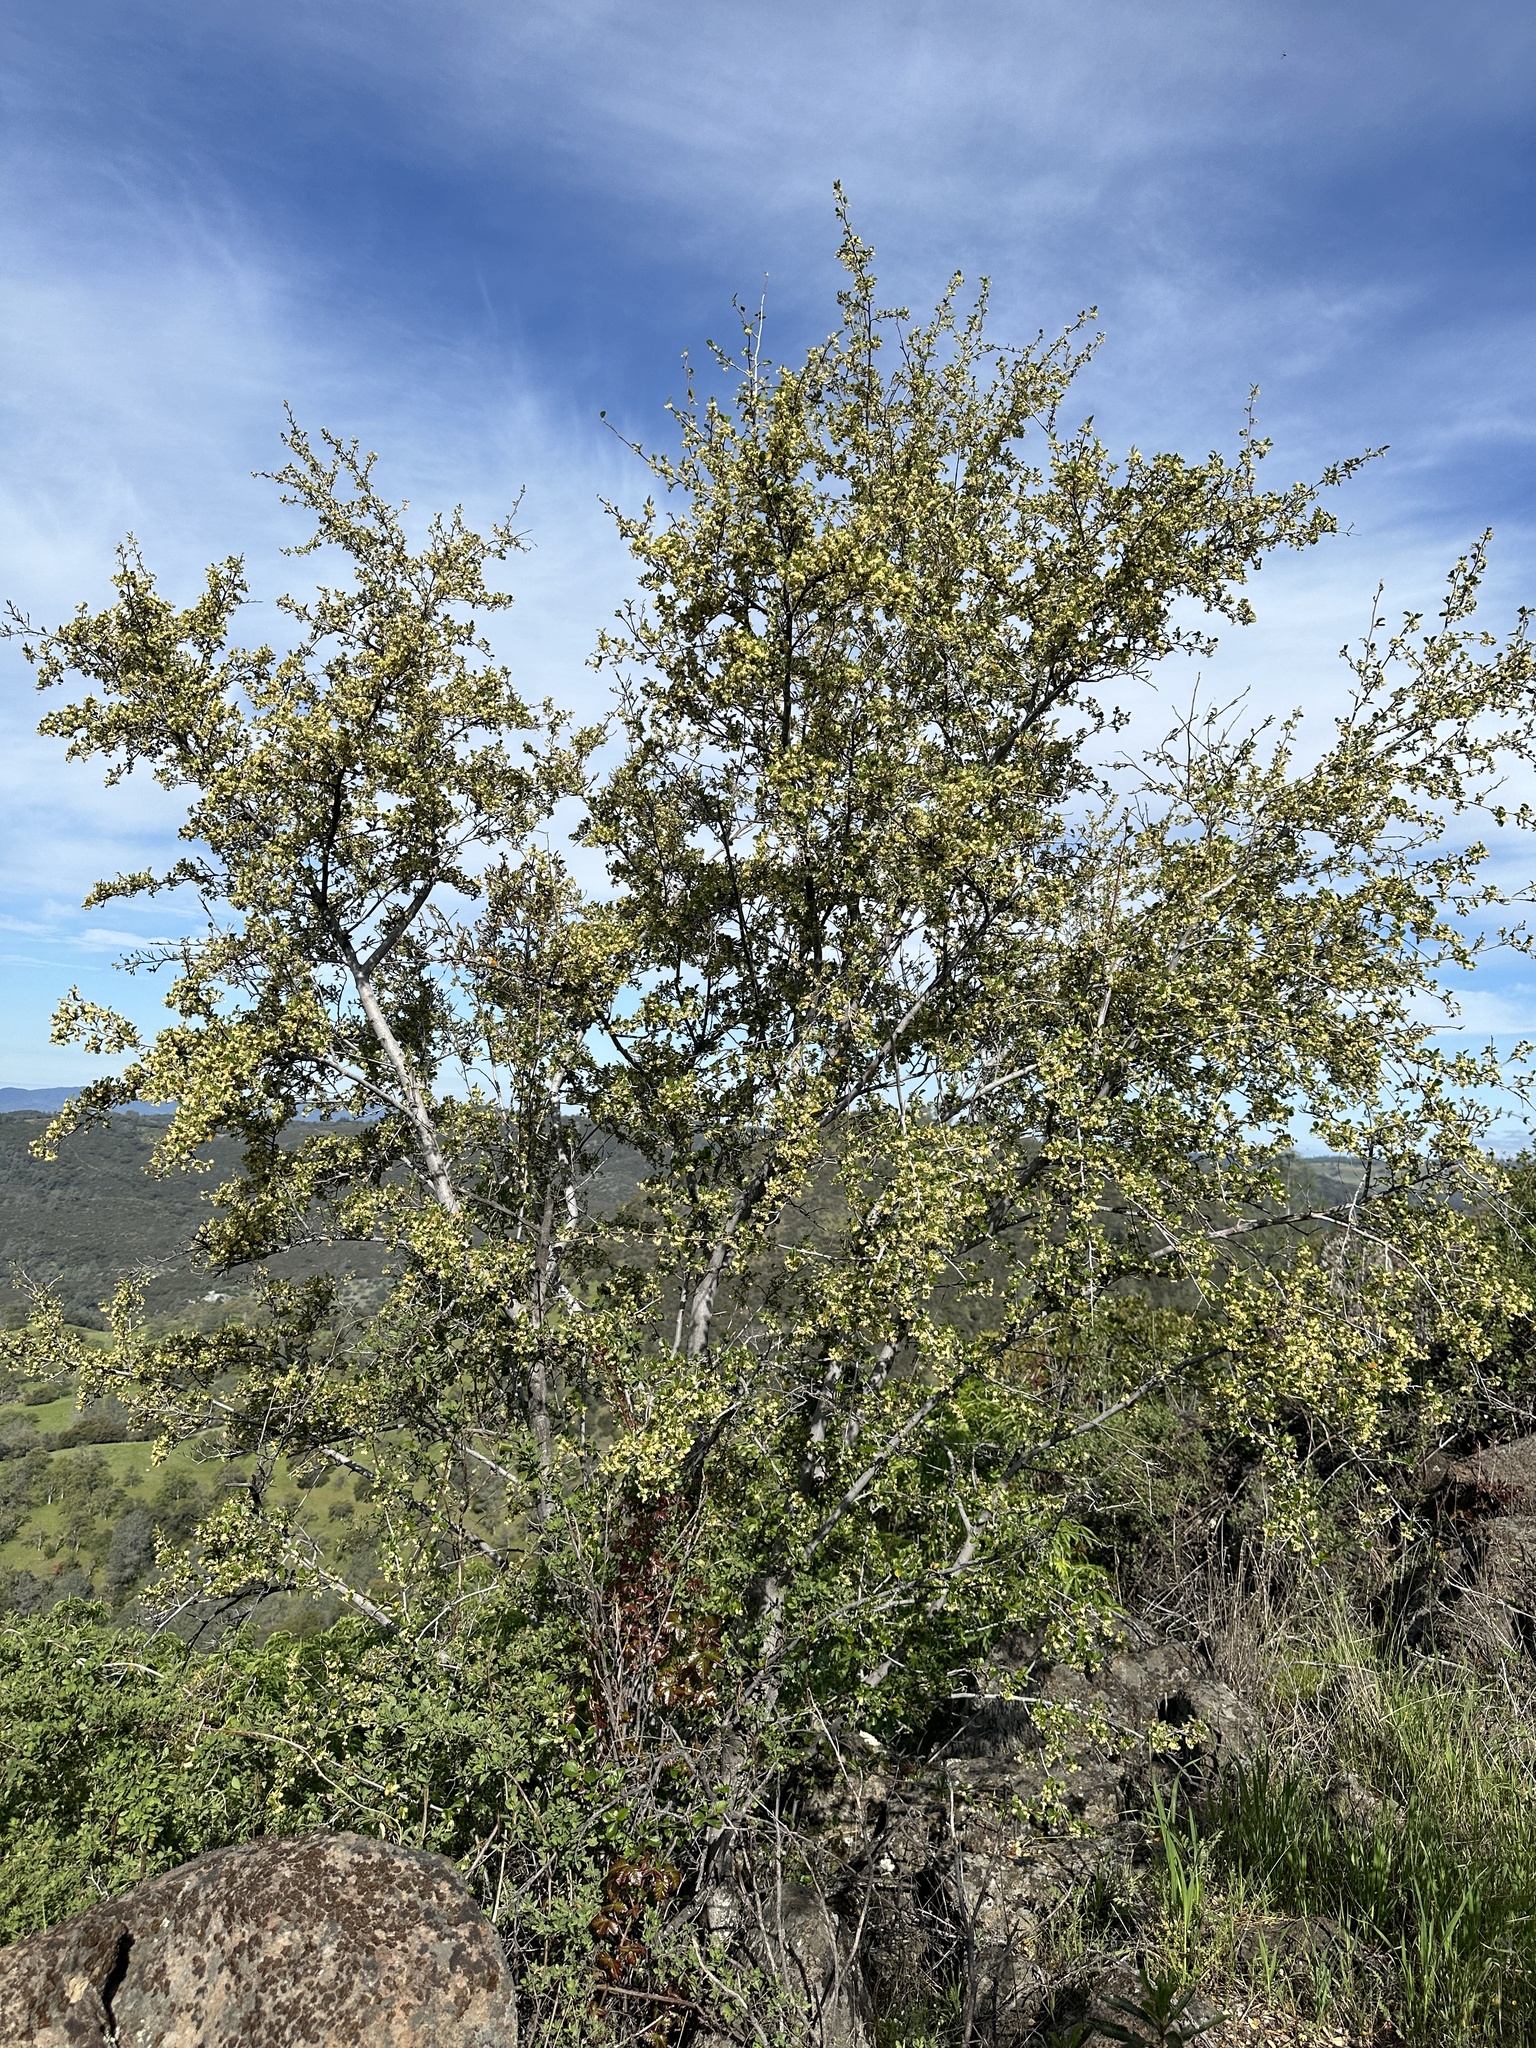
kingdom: Plantae
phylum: Tracheophyta
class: Magnoliopsida
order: Rosales
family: Rosaceae
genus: Cercocarpus
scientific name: Cercocarpus betuloides
